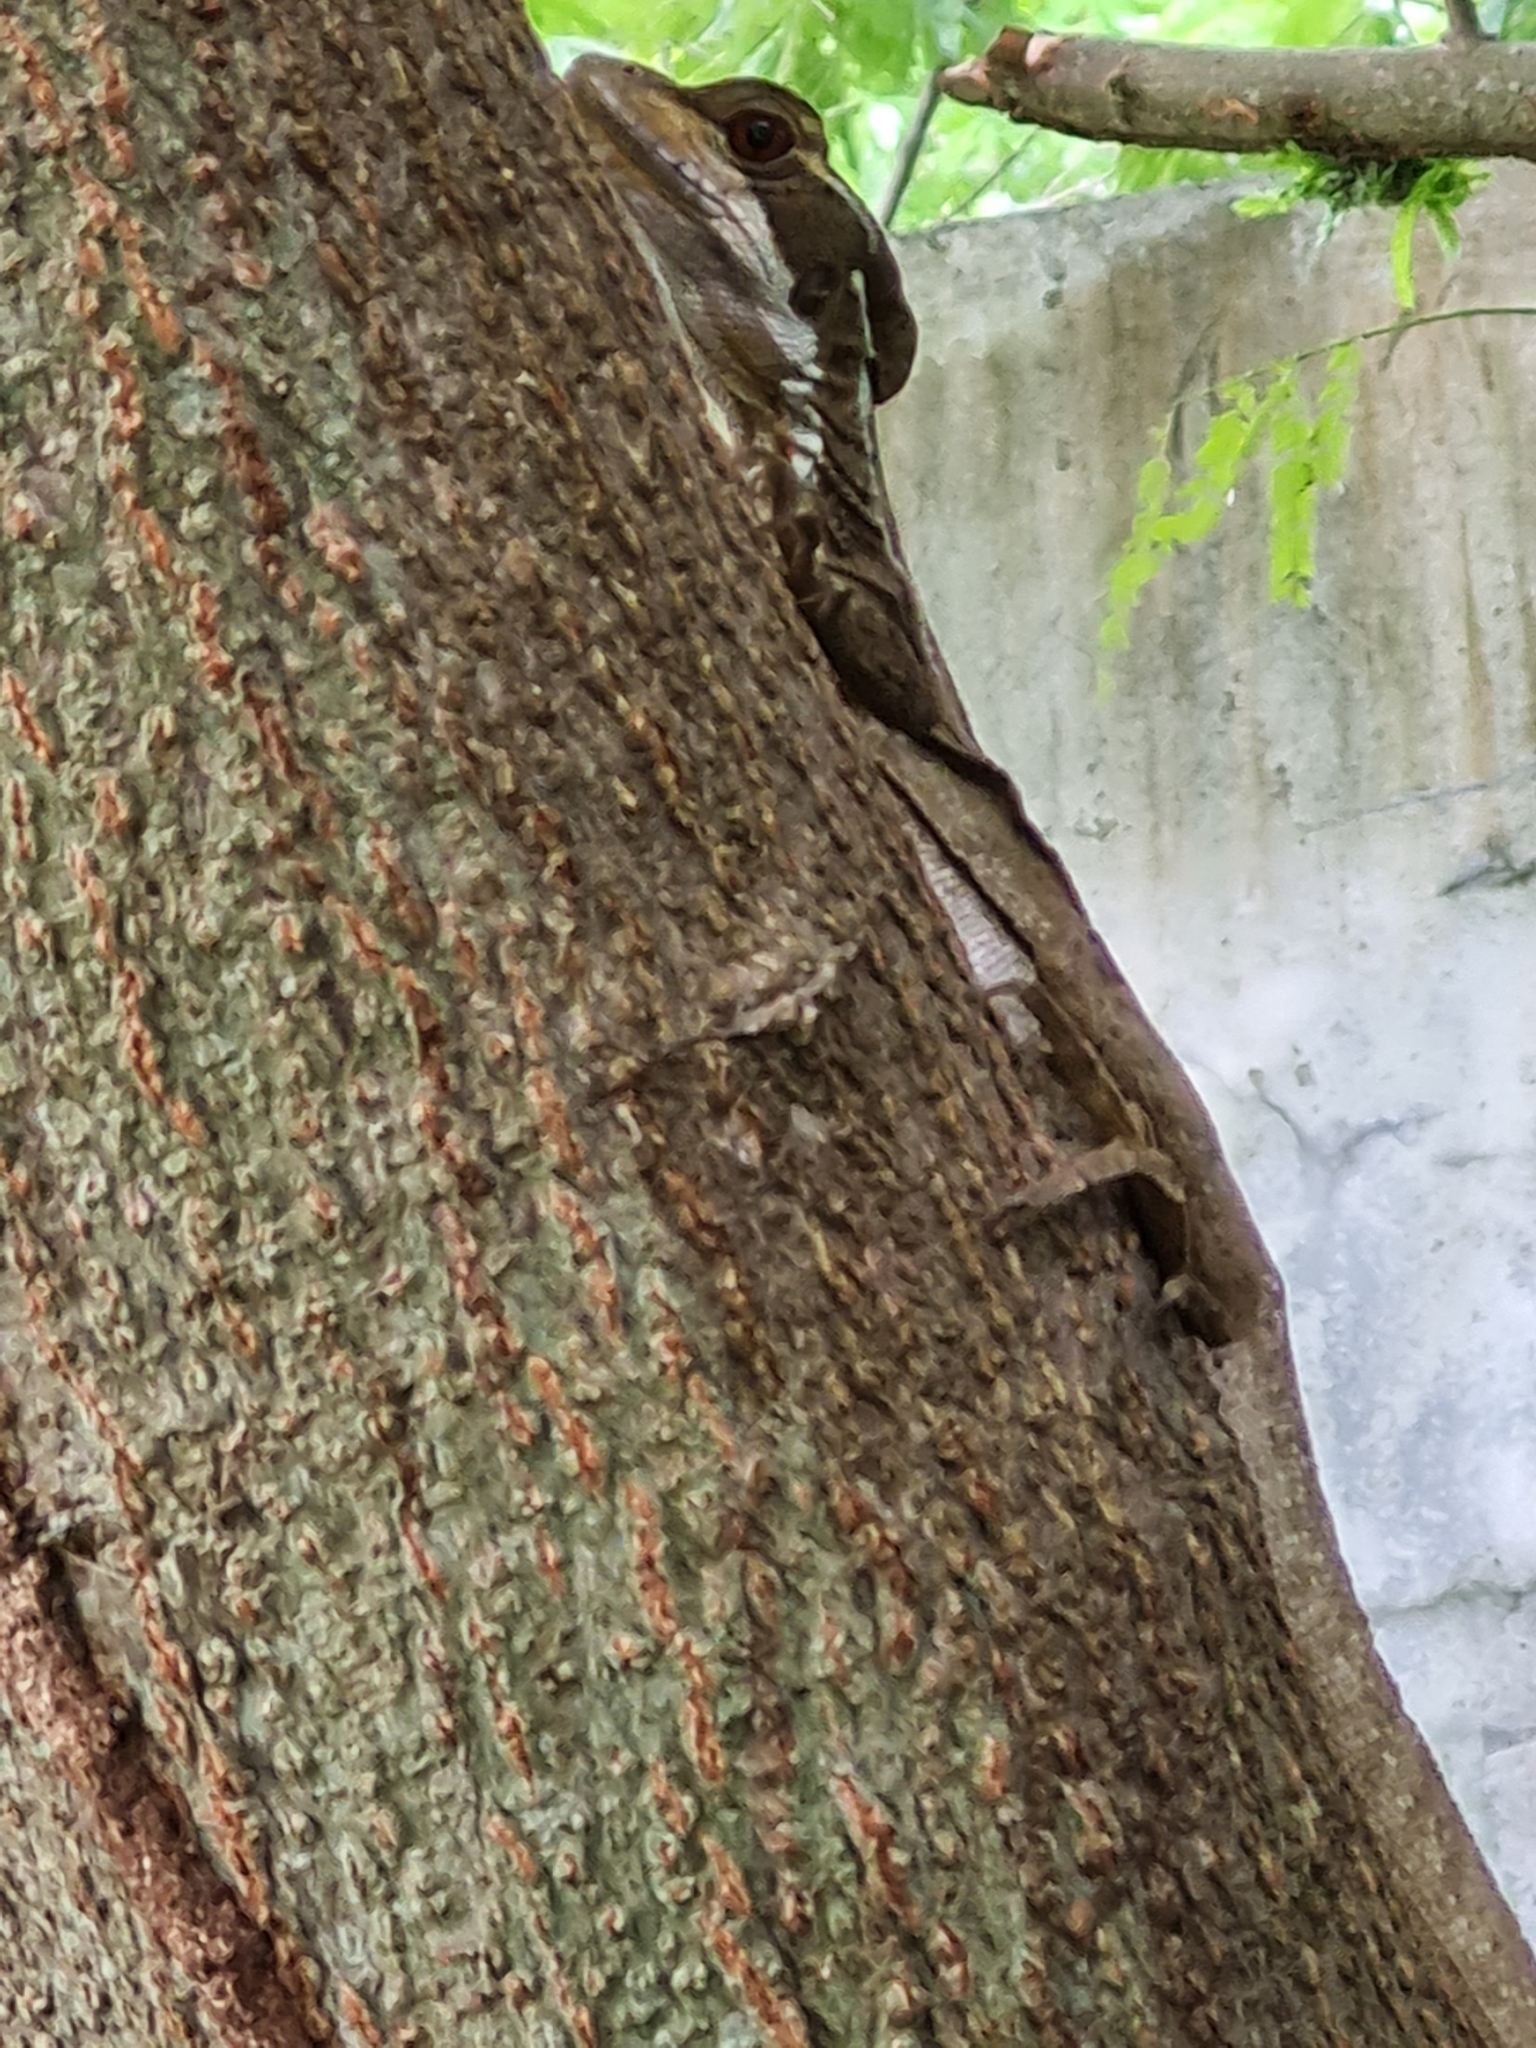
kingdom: Animalia
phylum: Chordata
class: Squamata
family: Corytophanidae
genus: Basiliscus
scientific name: Basiliscus basiliscus
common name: Common basilisk
